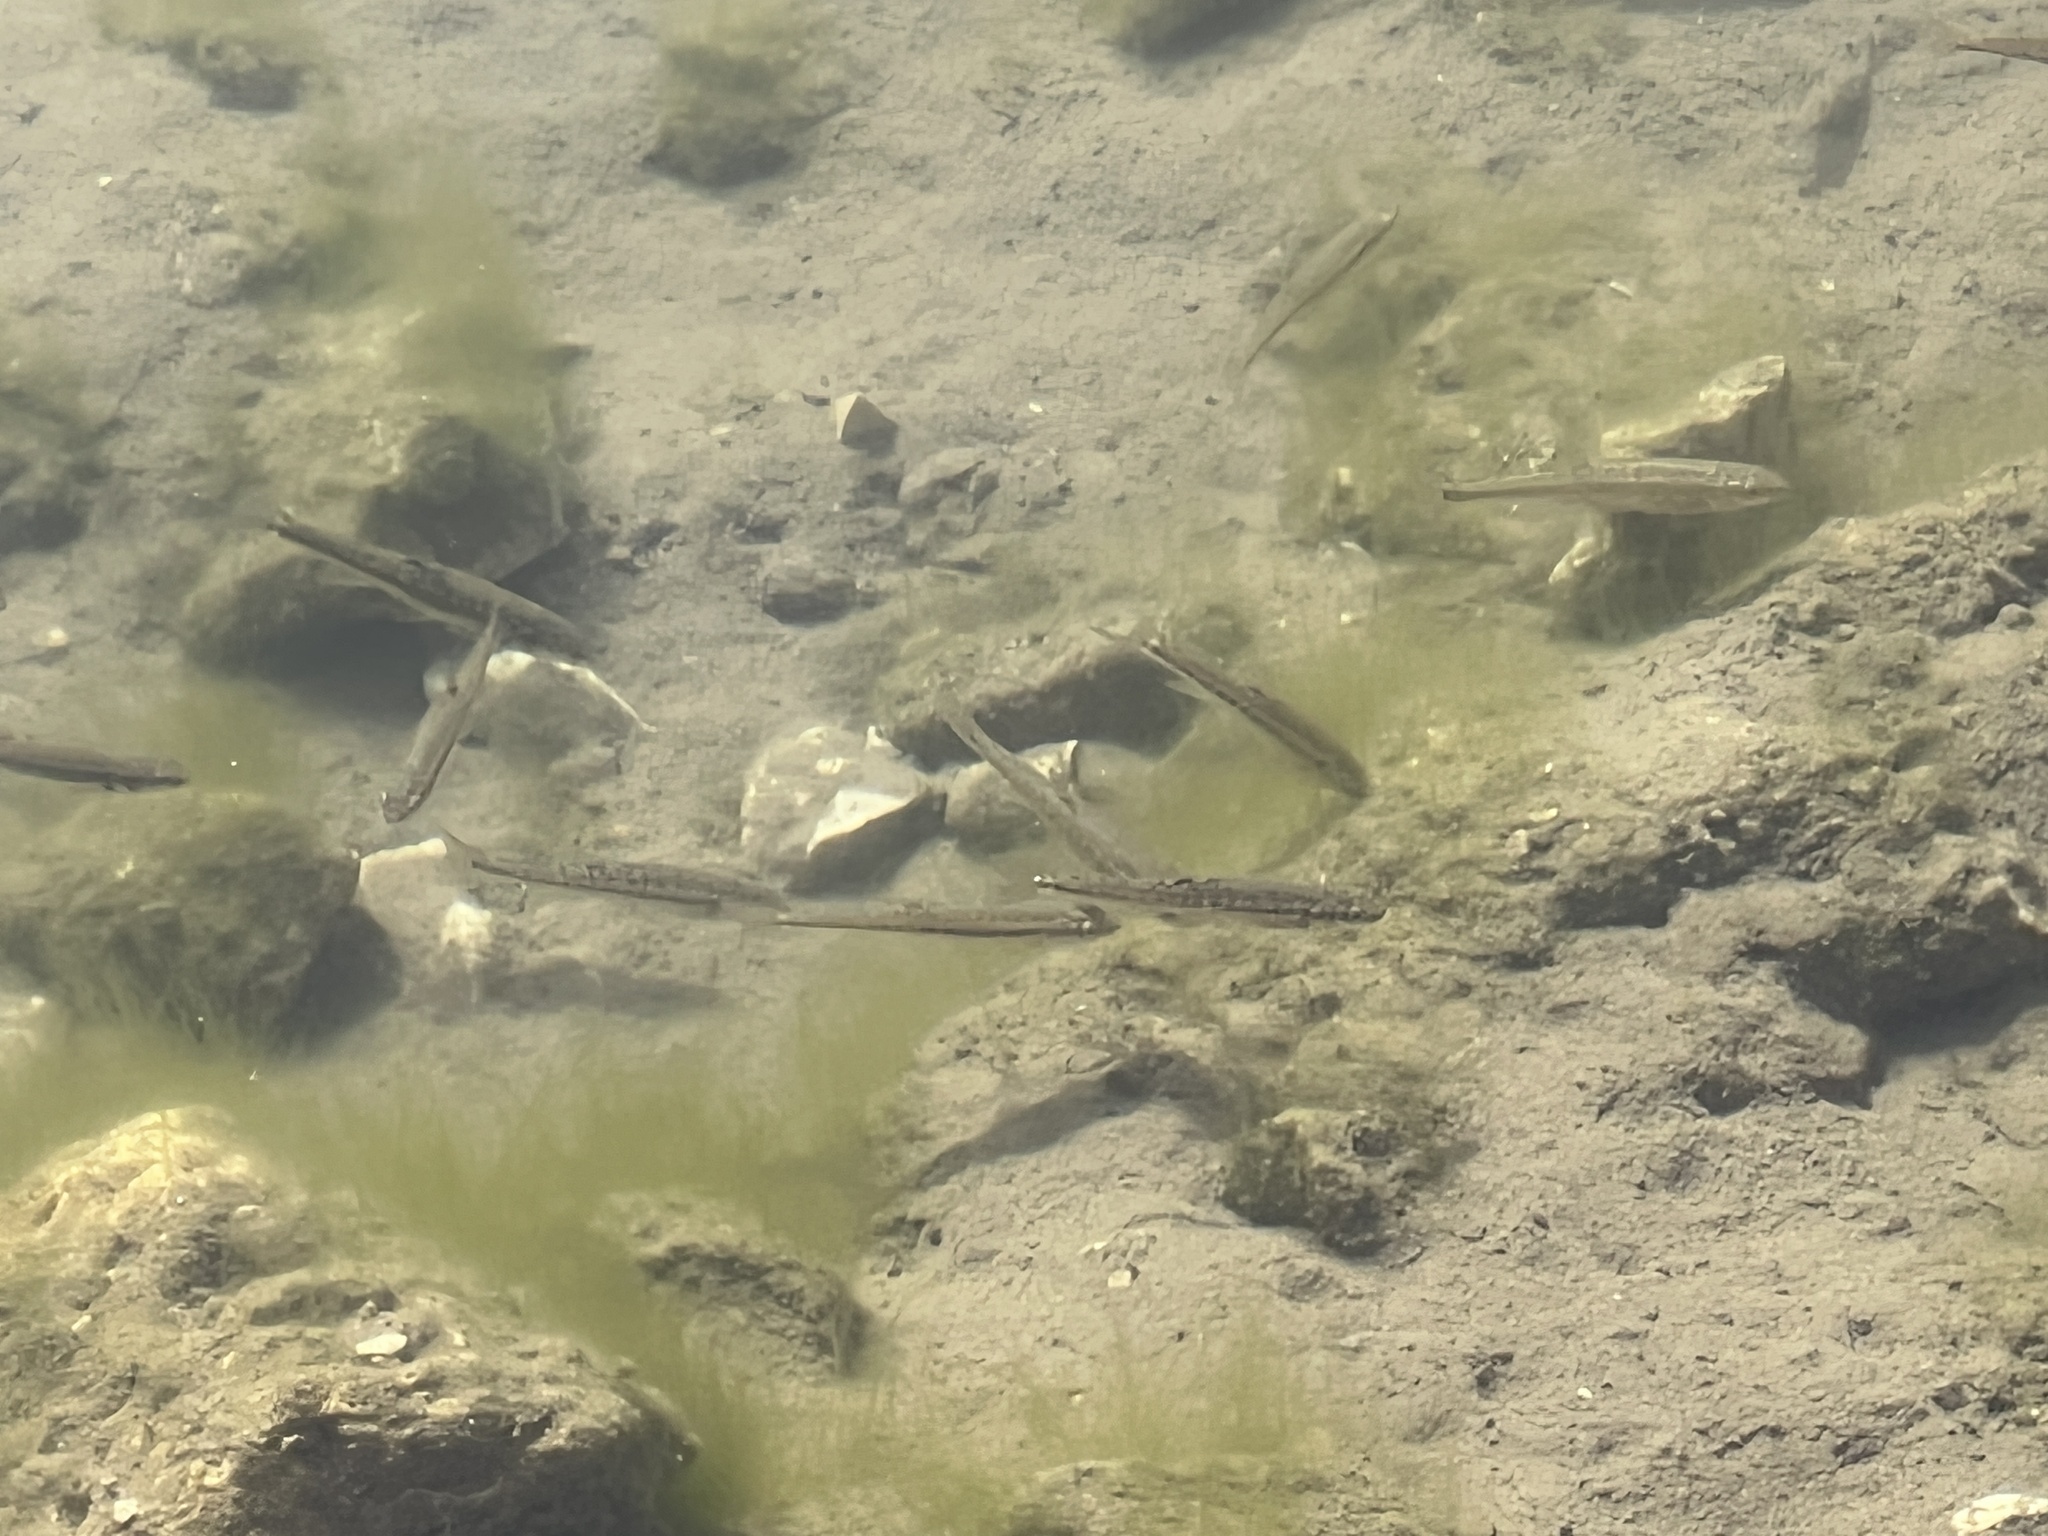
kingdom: Animalia
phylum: Chordata
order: Cypriniformes
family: Cyprinidae
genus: Phoxinus
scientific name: Phoxinus phoxinus
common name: Minnow
